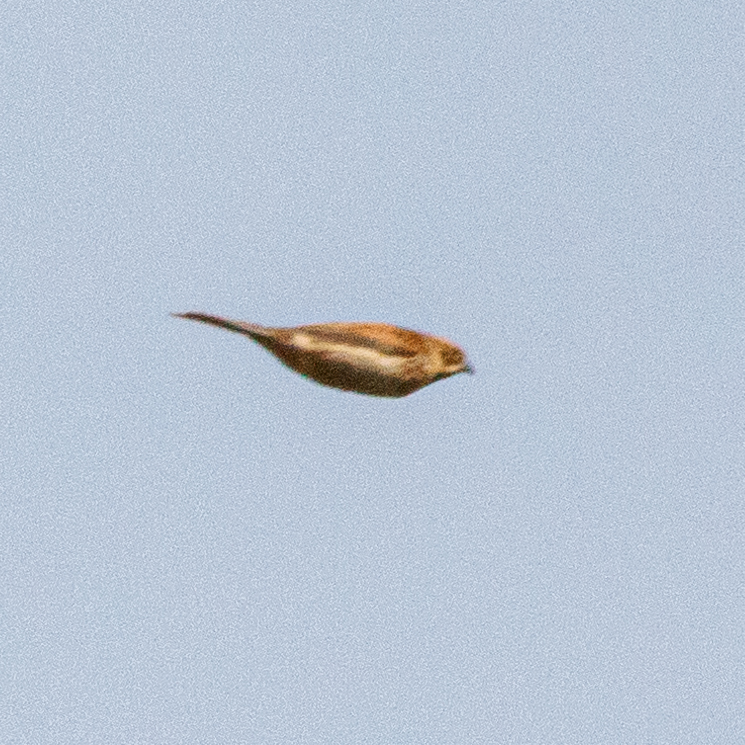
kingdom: Animalia
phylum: Chordata
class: Aves
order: Passeriformes
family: Emberizidae
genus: Emberiza
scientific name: Emberiza schoeniclus
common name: Reed bunting
